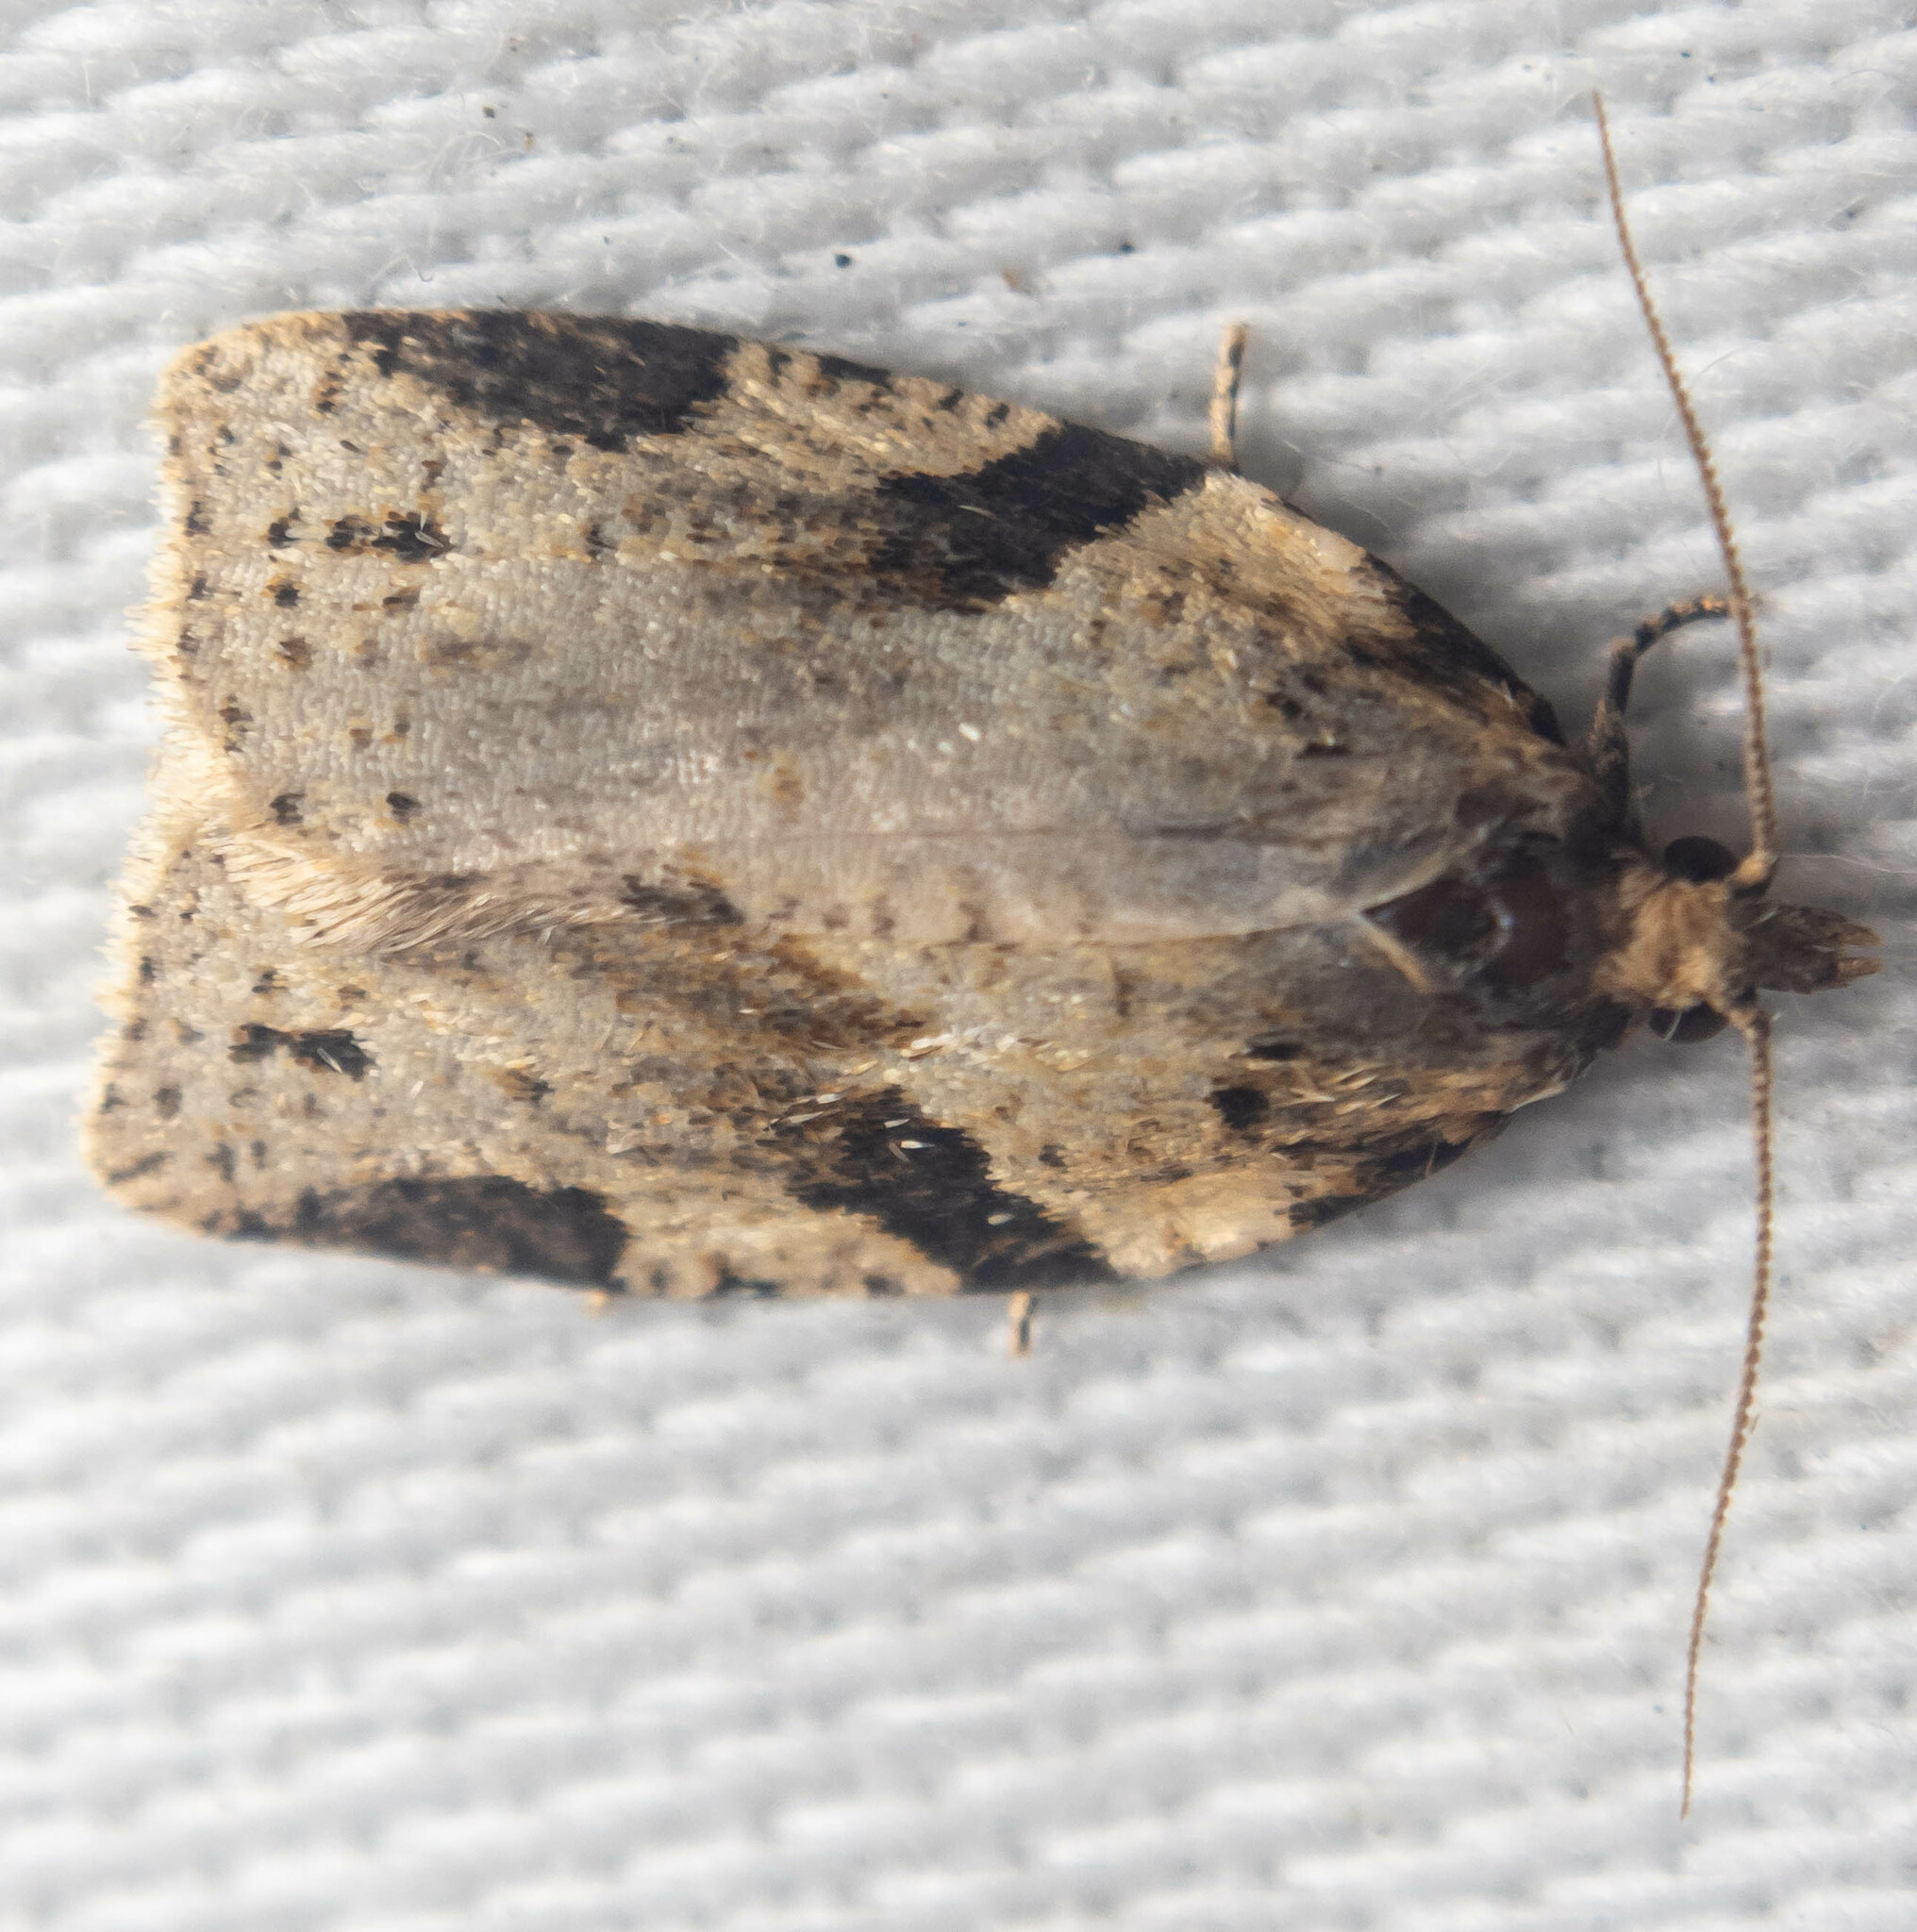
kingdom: Animalia
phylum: Arthropoda
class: Insecta
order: Lepidoptera
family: Tortricidae
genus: Clepsis
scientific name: Clepsis spectrana
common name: Cyclamen tortrix
